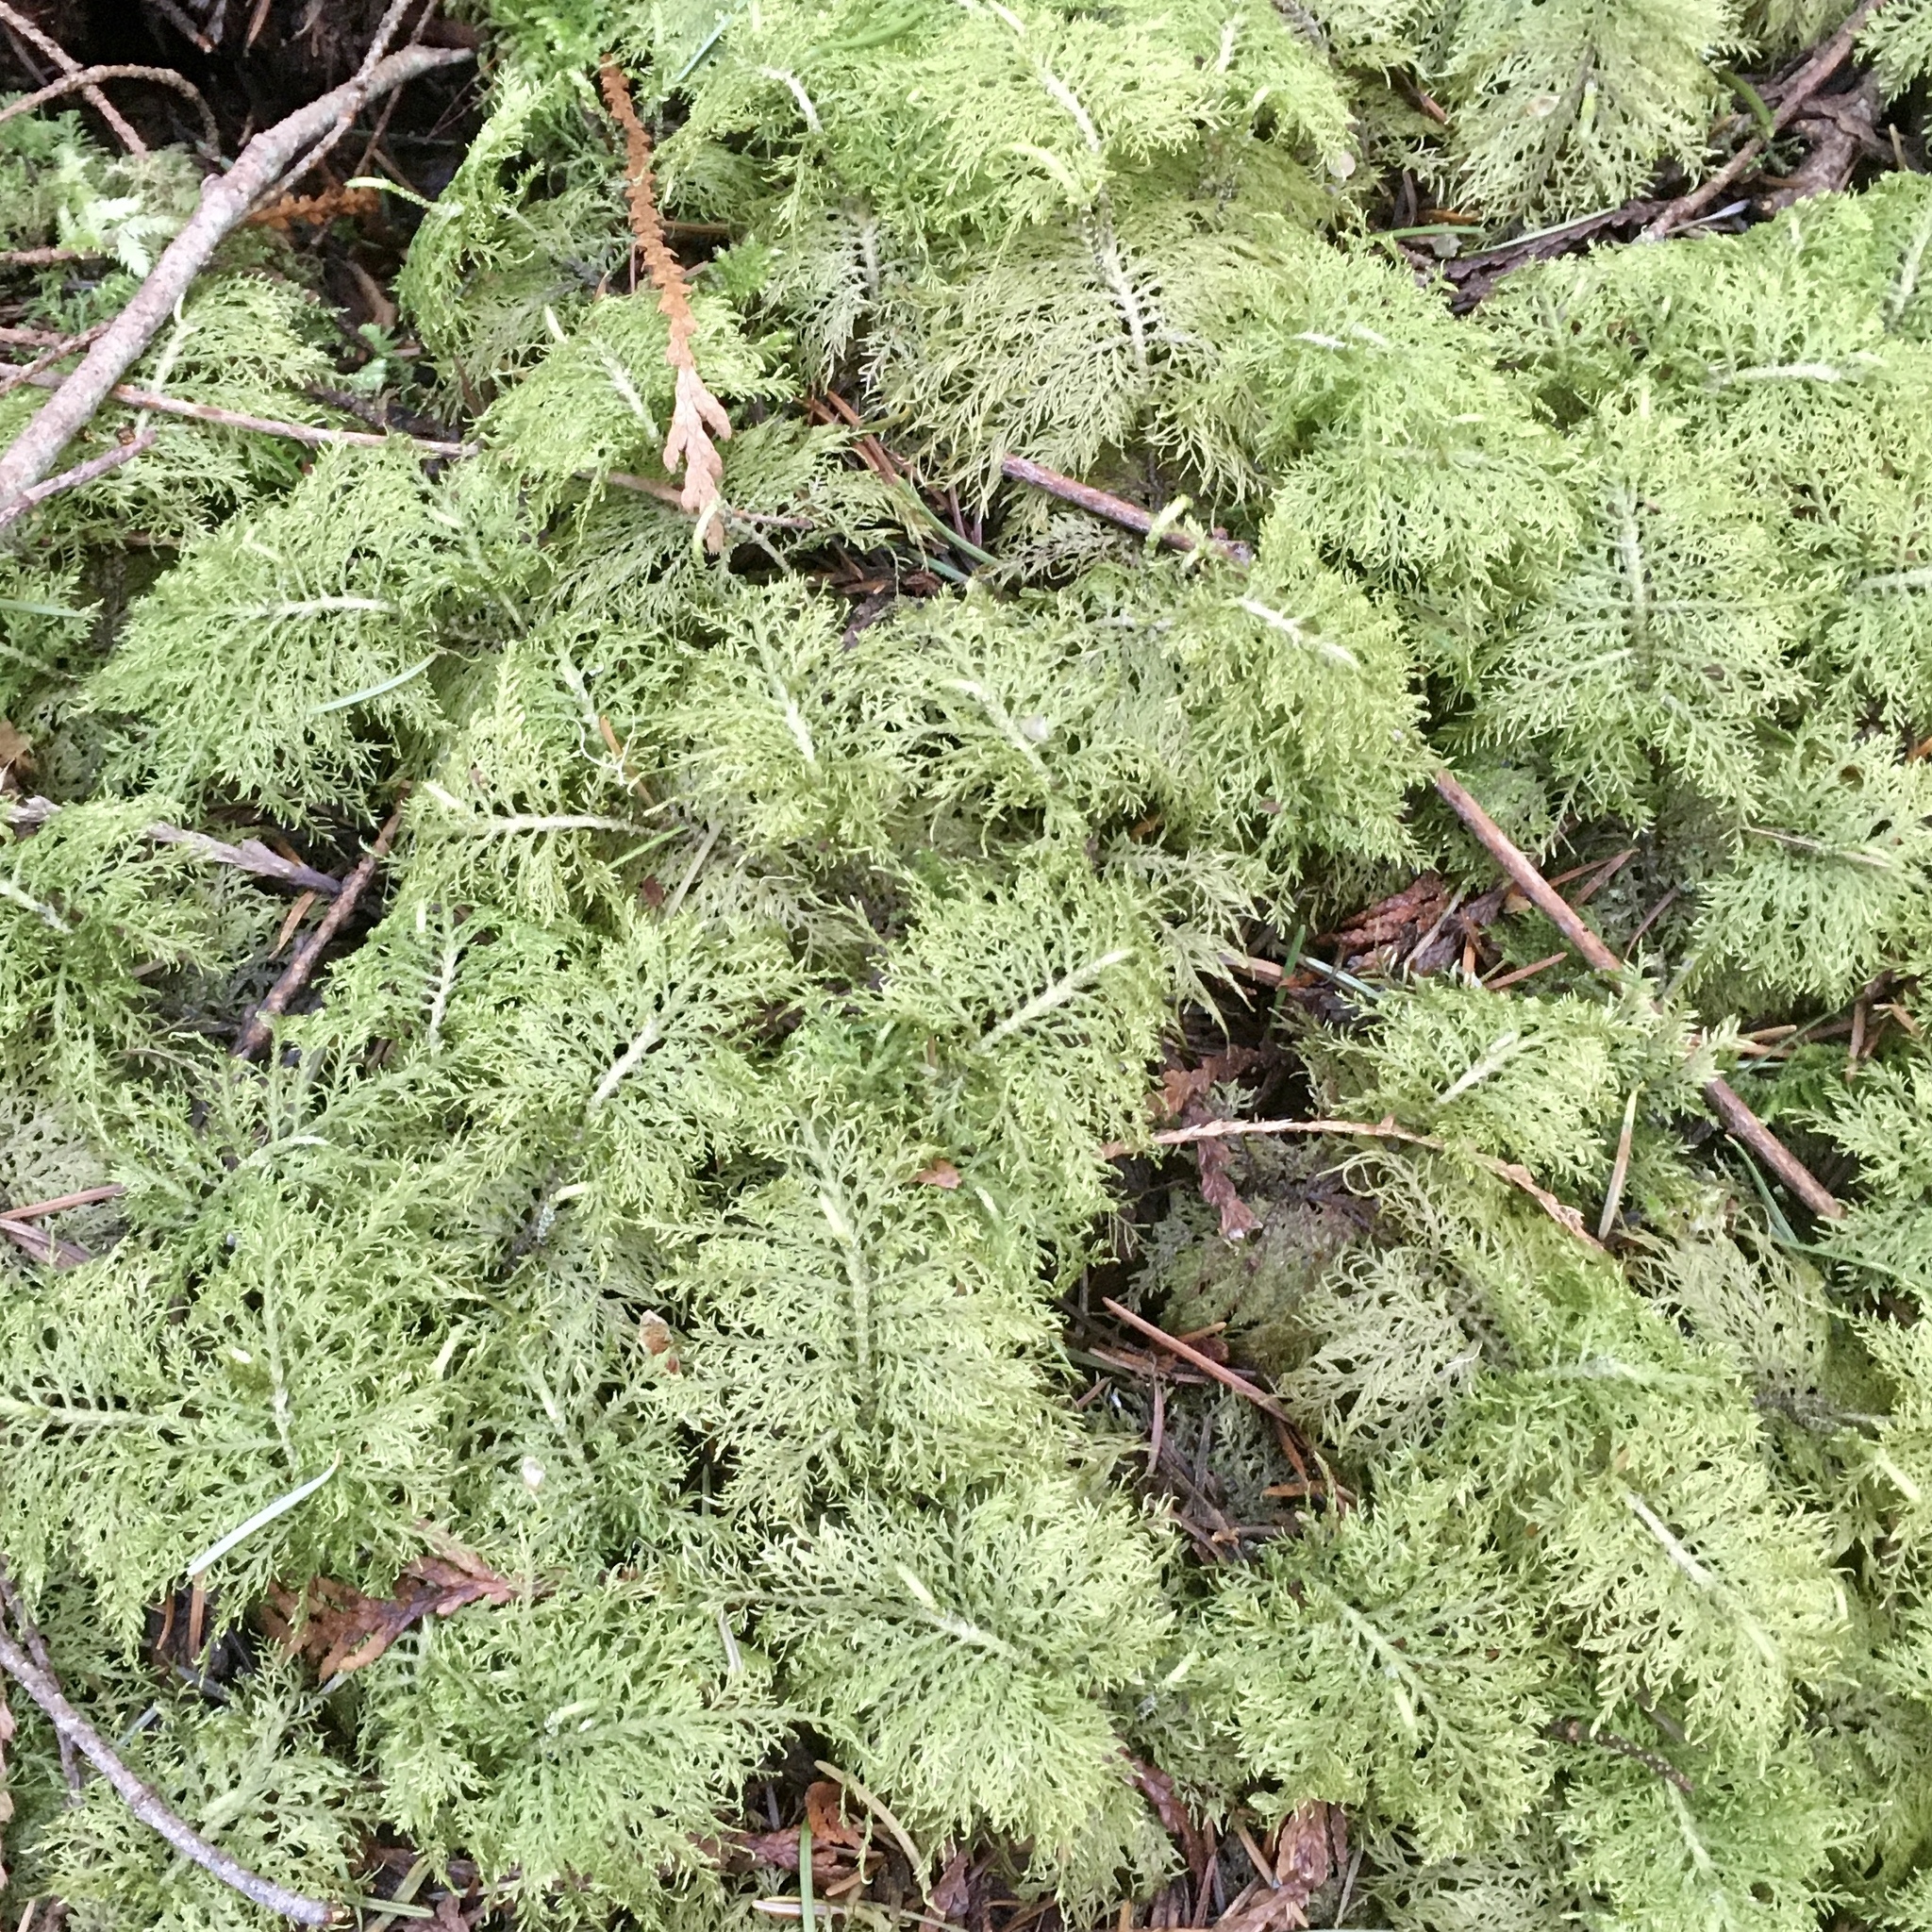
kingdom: Plantae
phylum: Bryophyta
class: Bryopsida
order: Hypnales
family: Hylocomiaceae
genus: Hylocomium
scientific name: Hylocomium splendens
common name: Stairstep moss
